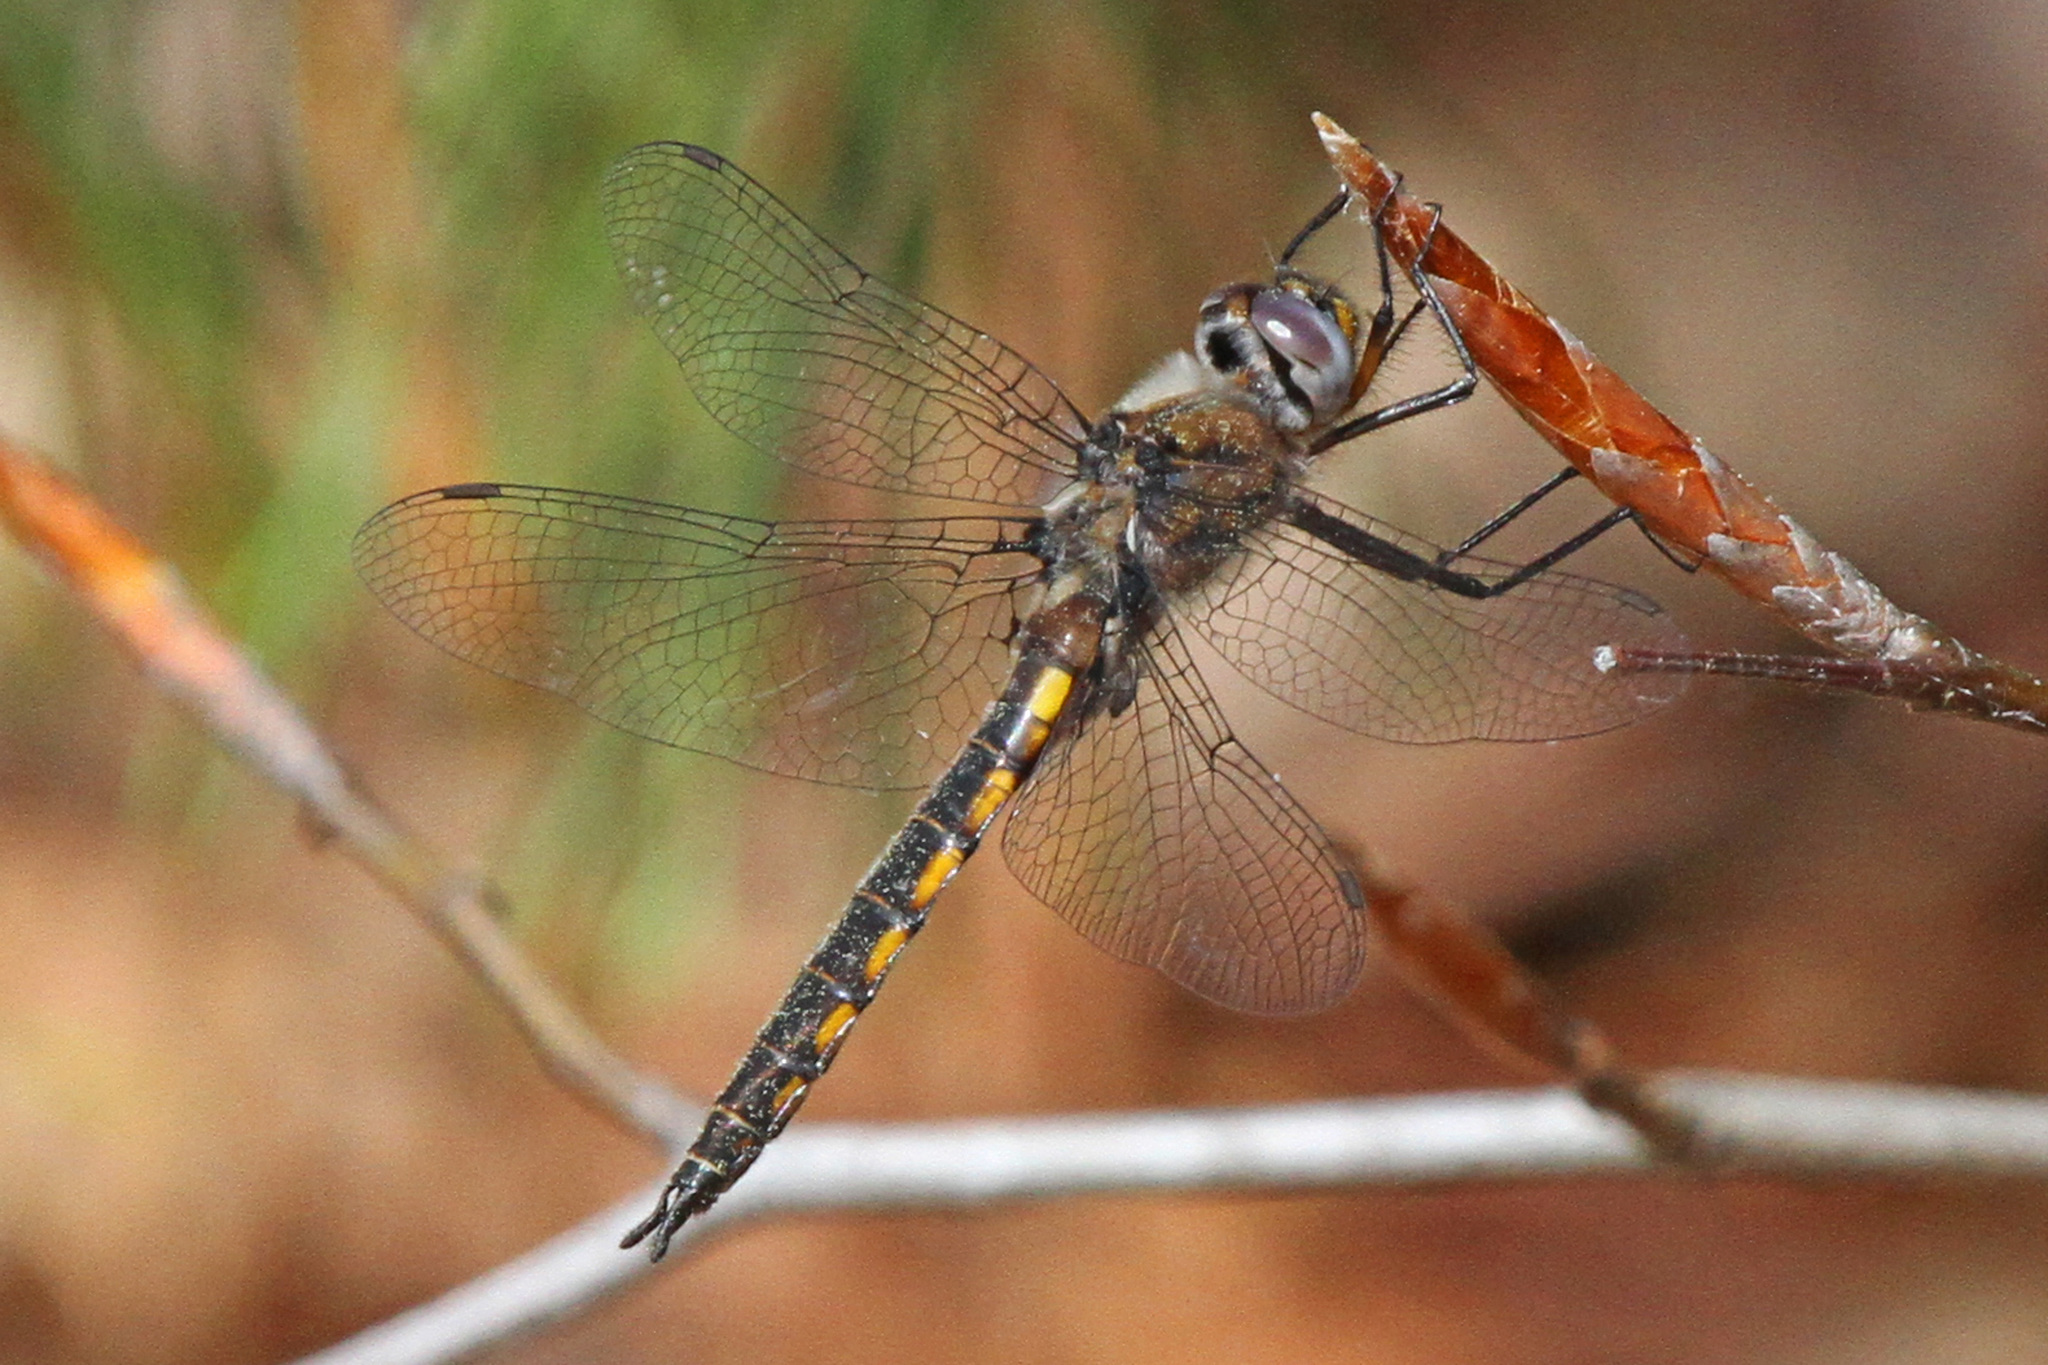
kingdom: Animalia
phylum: Arthropoda
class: Insecta
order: Odonata
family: Corduliidae
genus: Epitheca
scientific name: Epitheca cynosura
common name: Common baskettail
